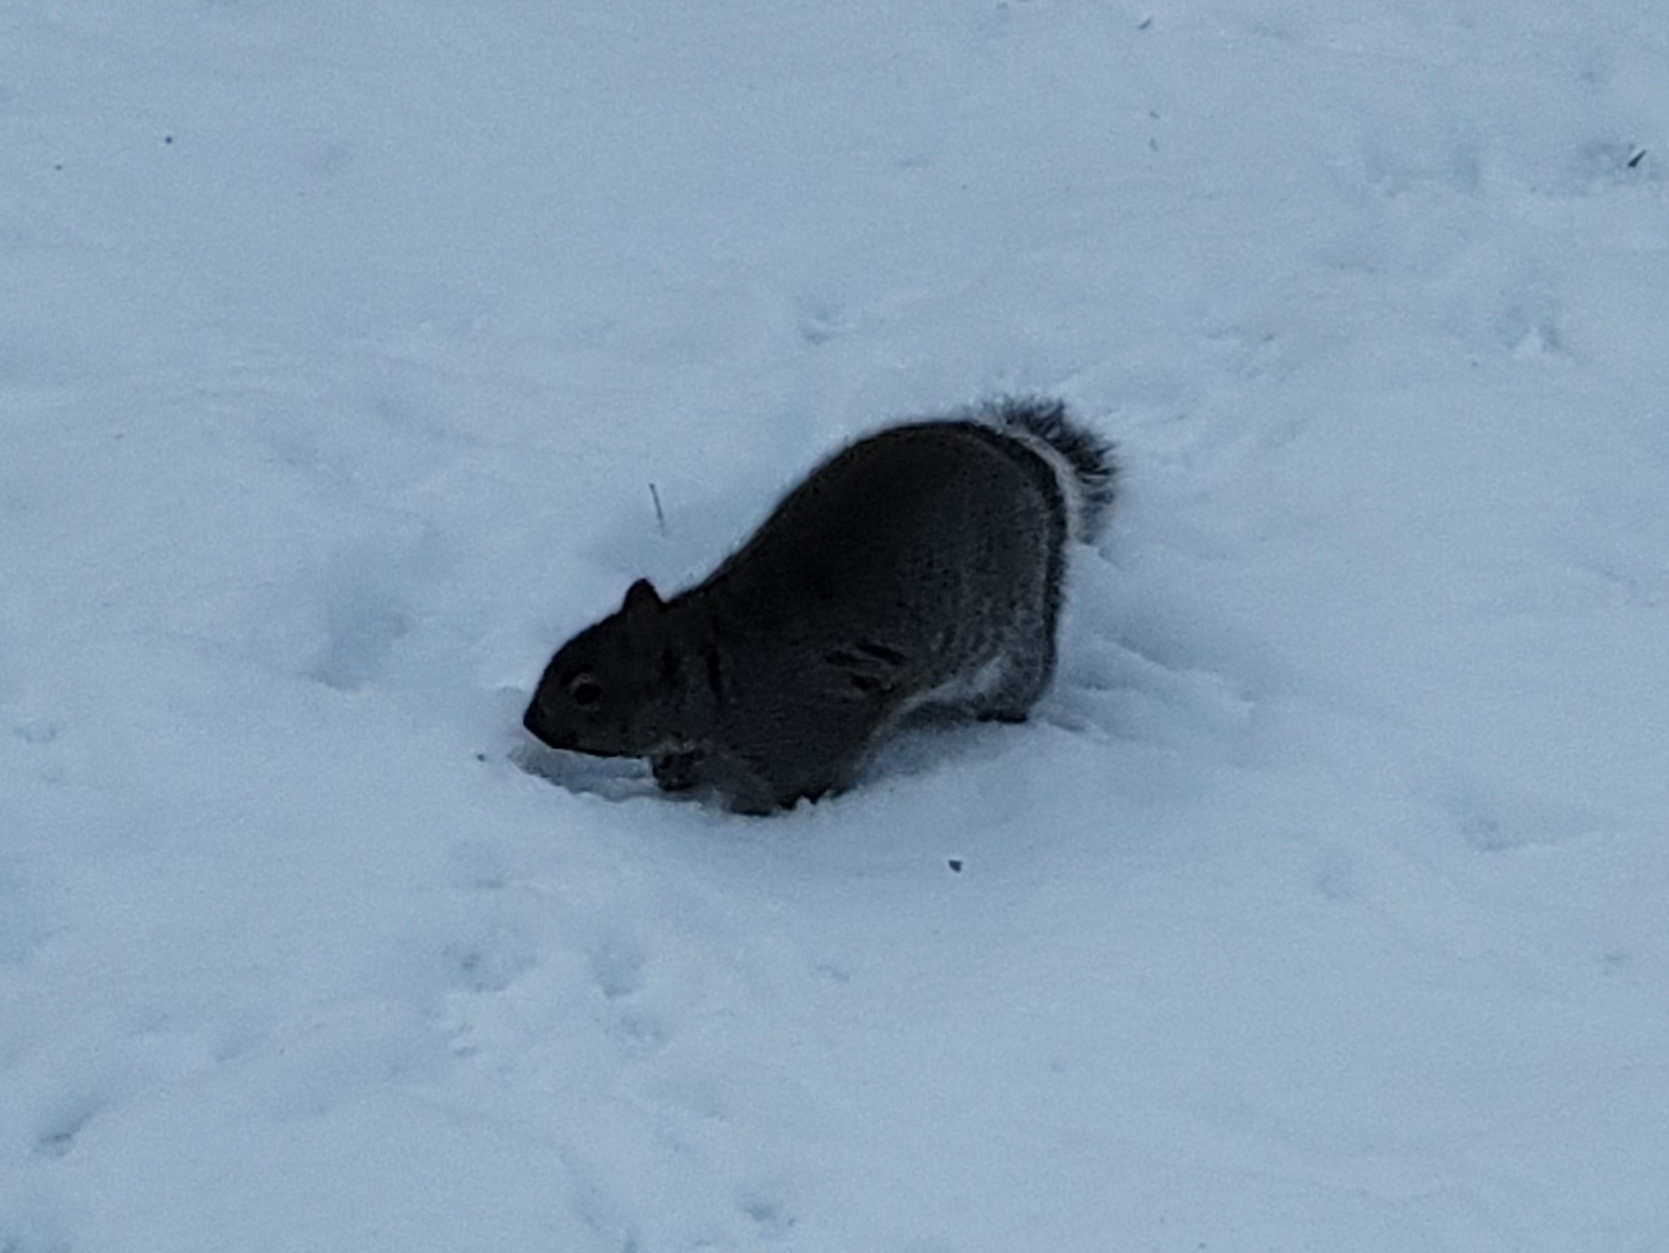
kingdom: Animalia
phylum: Chordata
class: Mammalia
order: Rodentia
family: Sciuridae
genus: Sciurus
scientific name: Sciurus carolinensis
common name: Eastern gray squirrel
